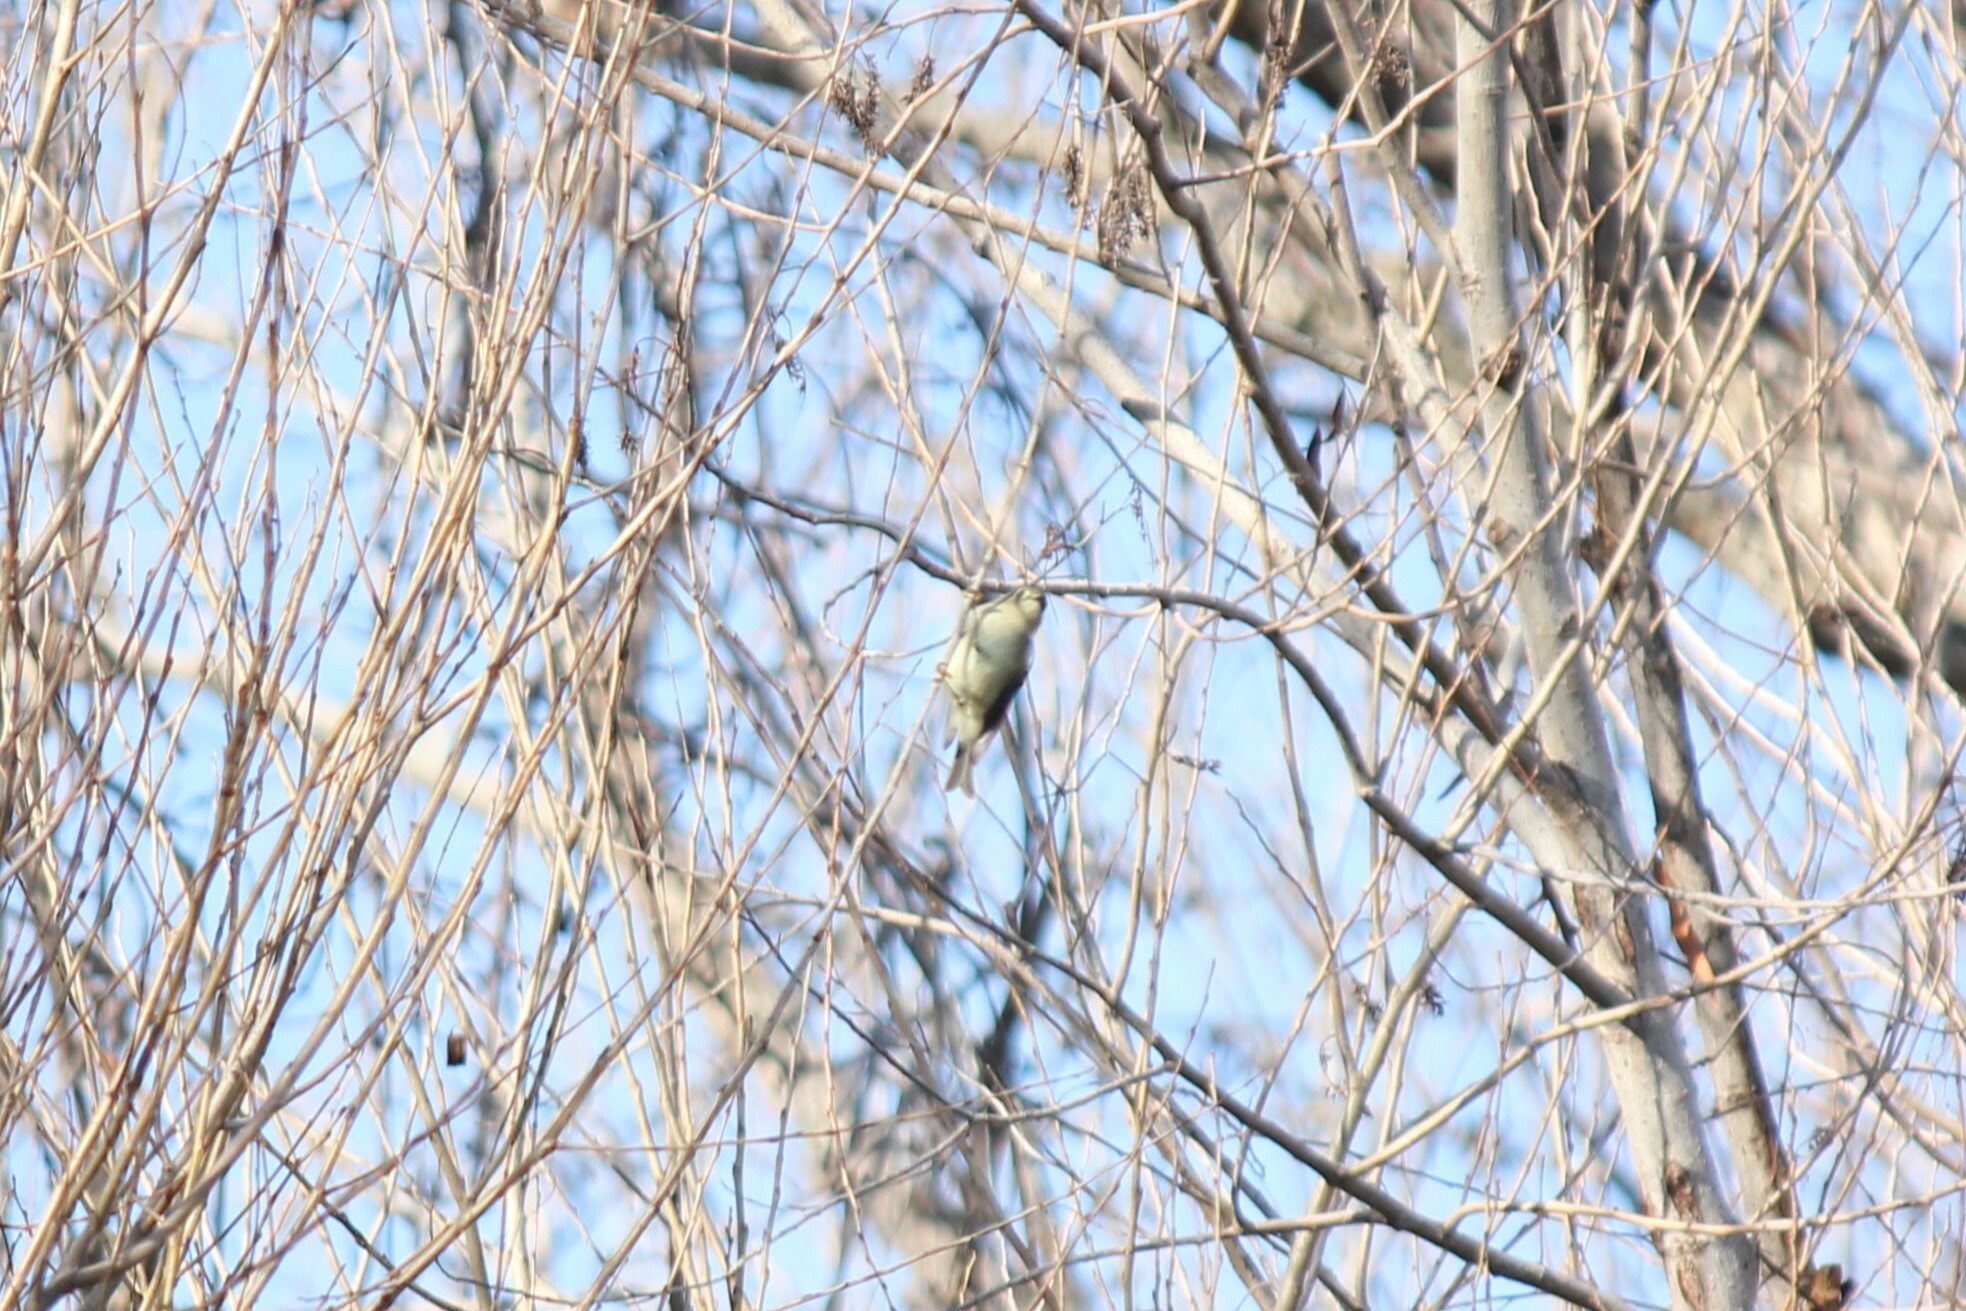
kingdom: Animalia
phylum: Chordata
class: Aves
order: Passeriformes
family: Regulidae
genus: Regulus
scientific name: Regulus calendula
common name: Ruby-crowned kinglet
